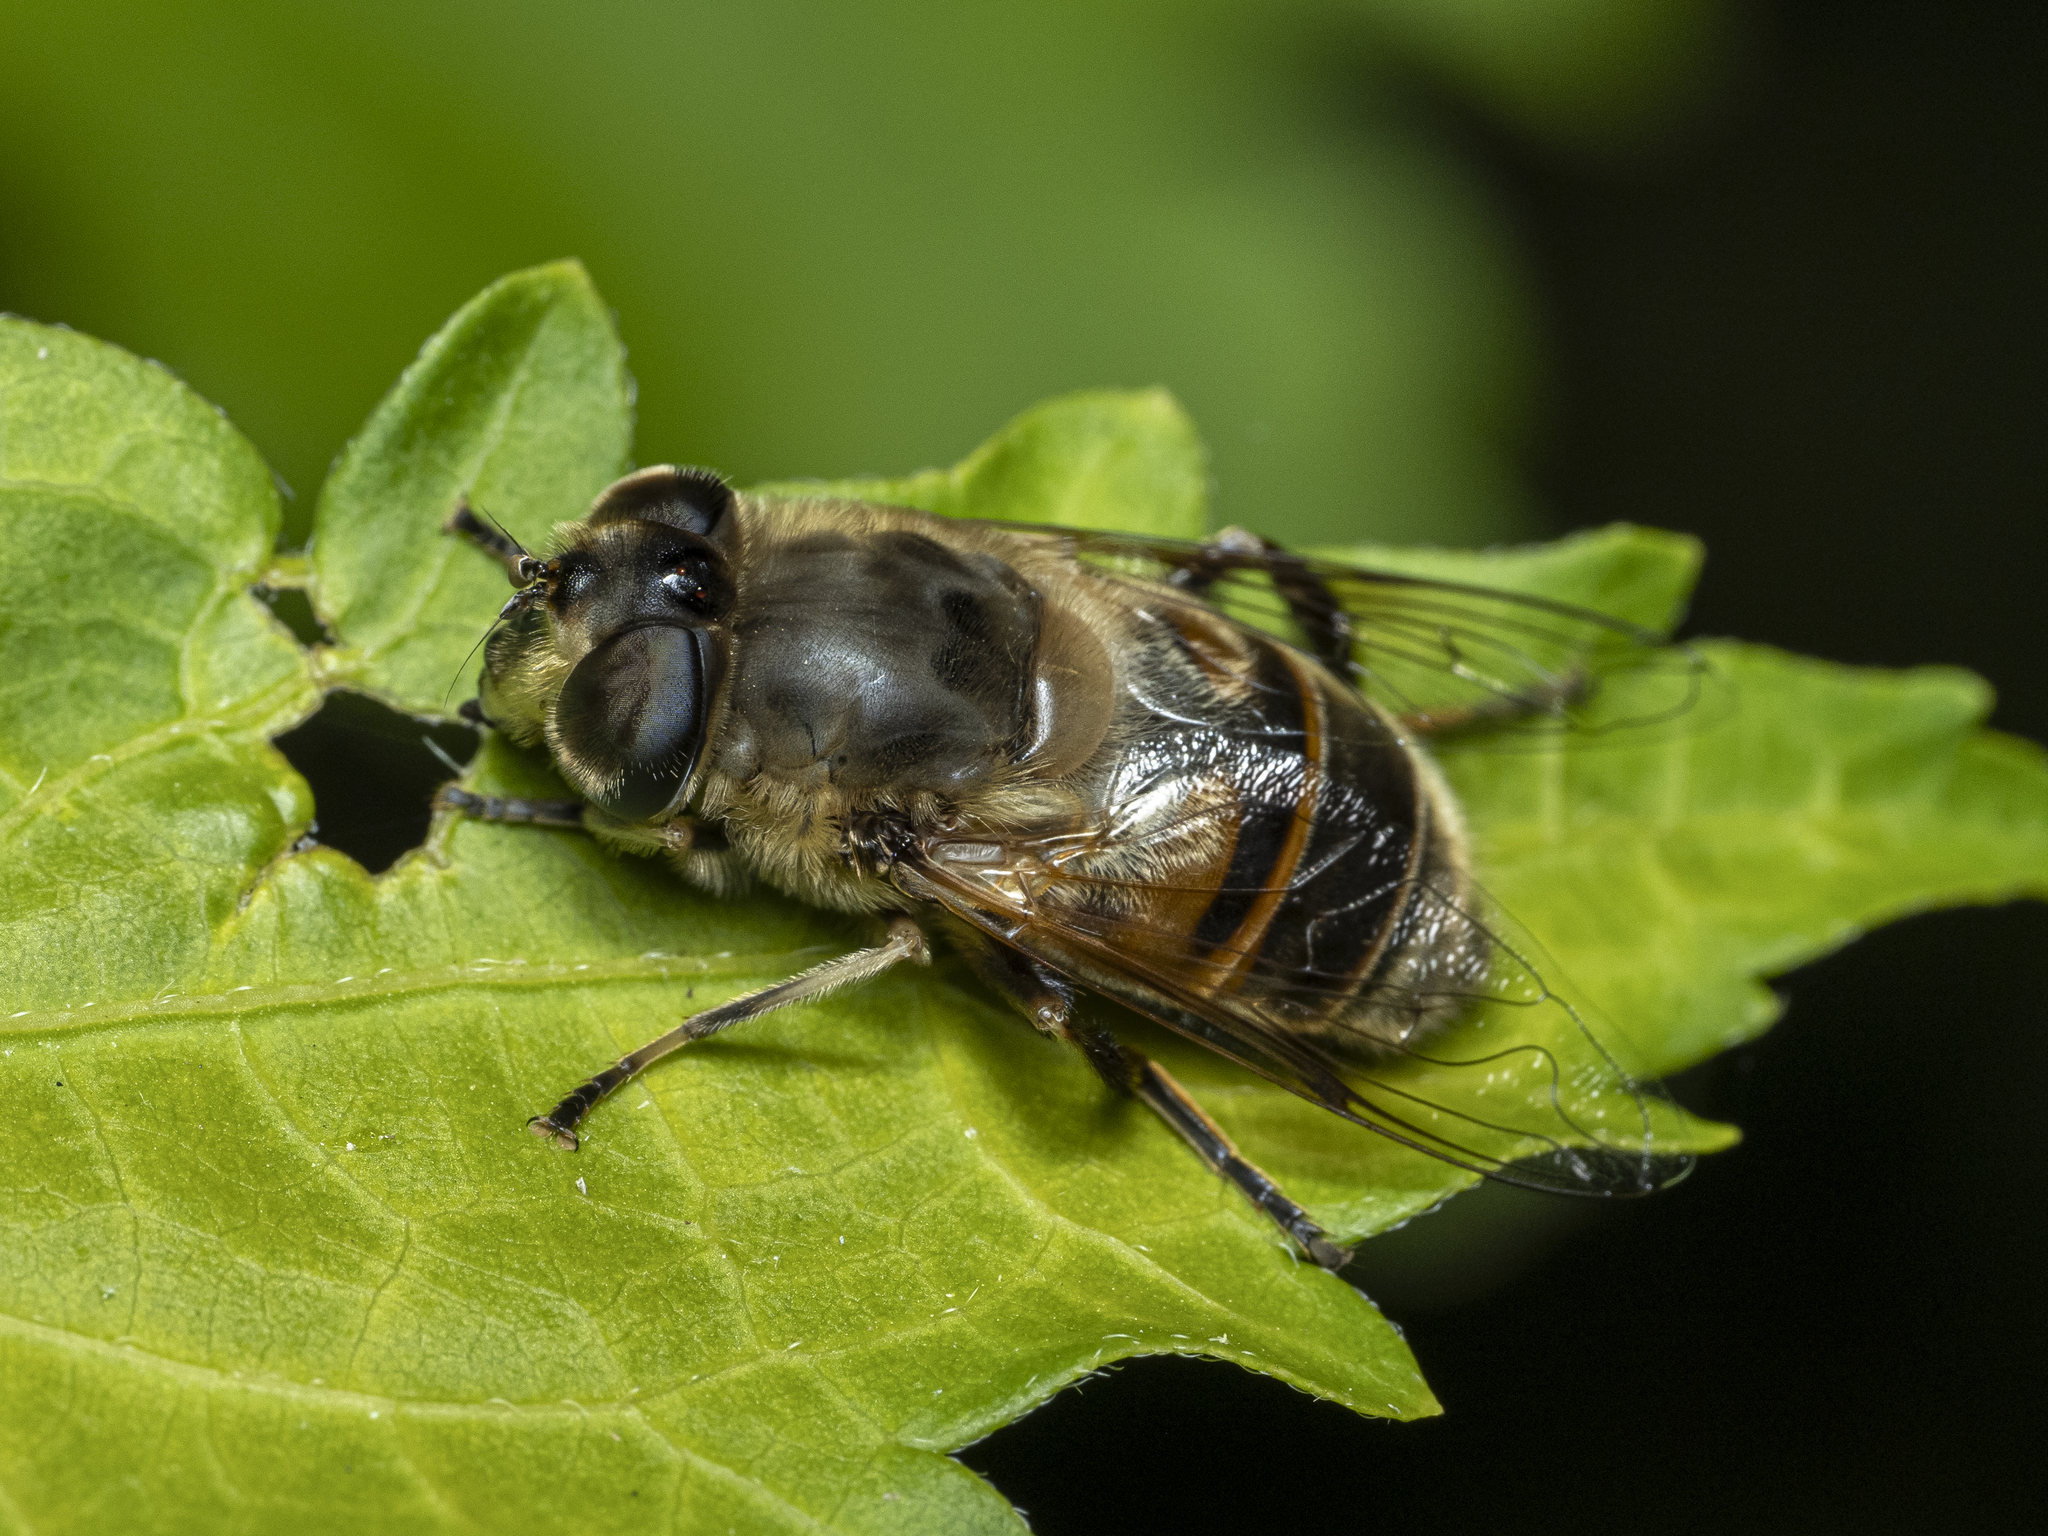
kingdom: Animalia
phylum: Arthropoda
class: Insecta
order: Diptera
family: Syrphidae
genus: Eristalis
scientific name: Eristalis tenax
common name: Drone fly
